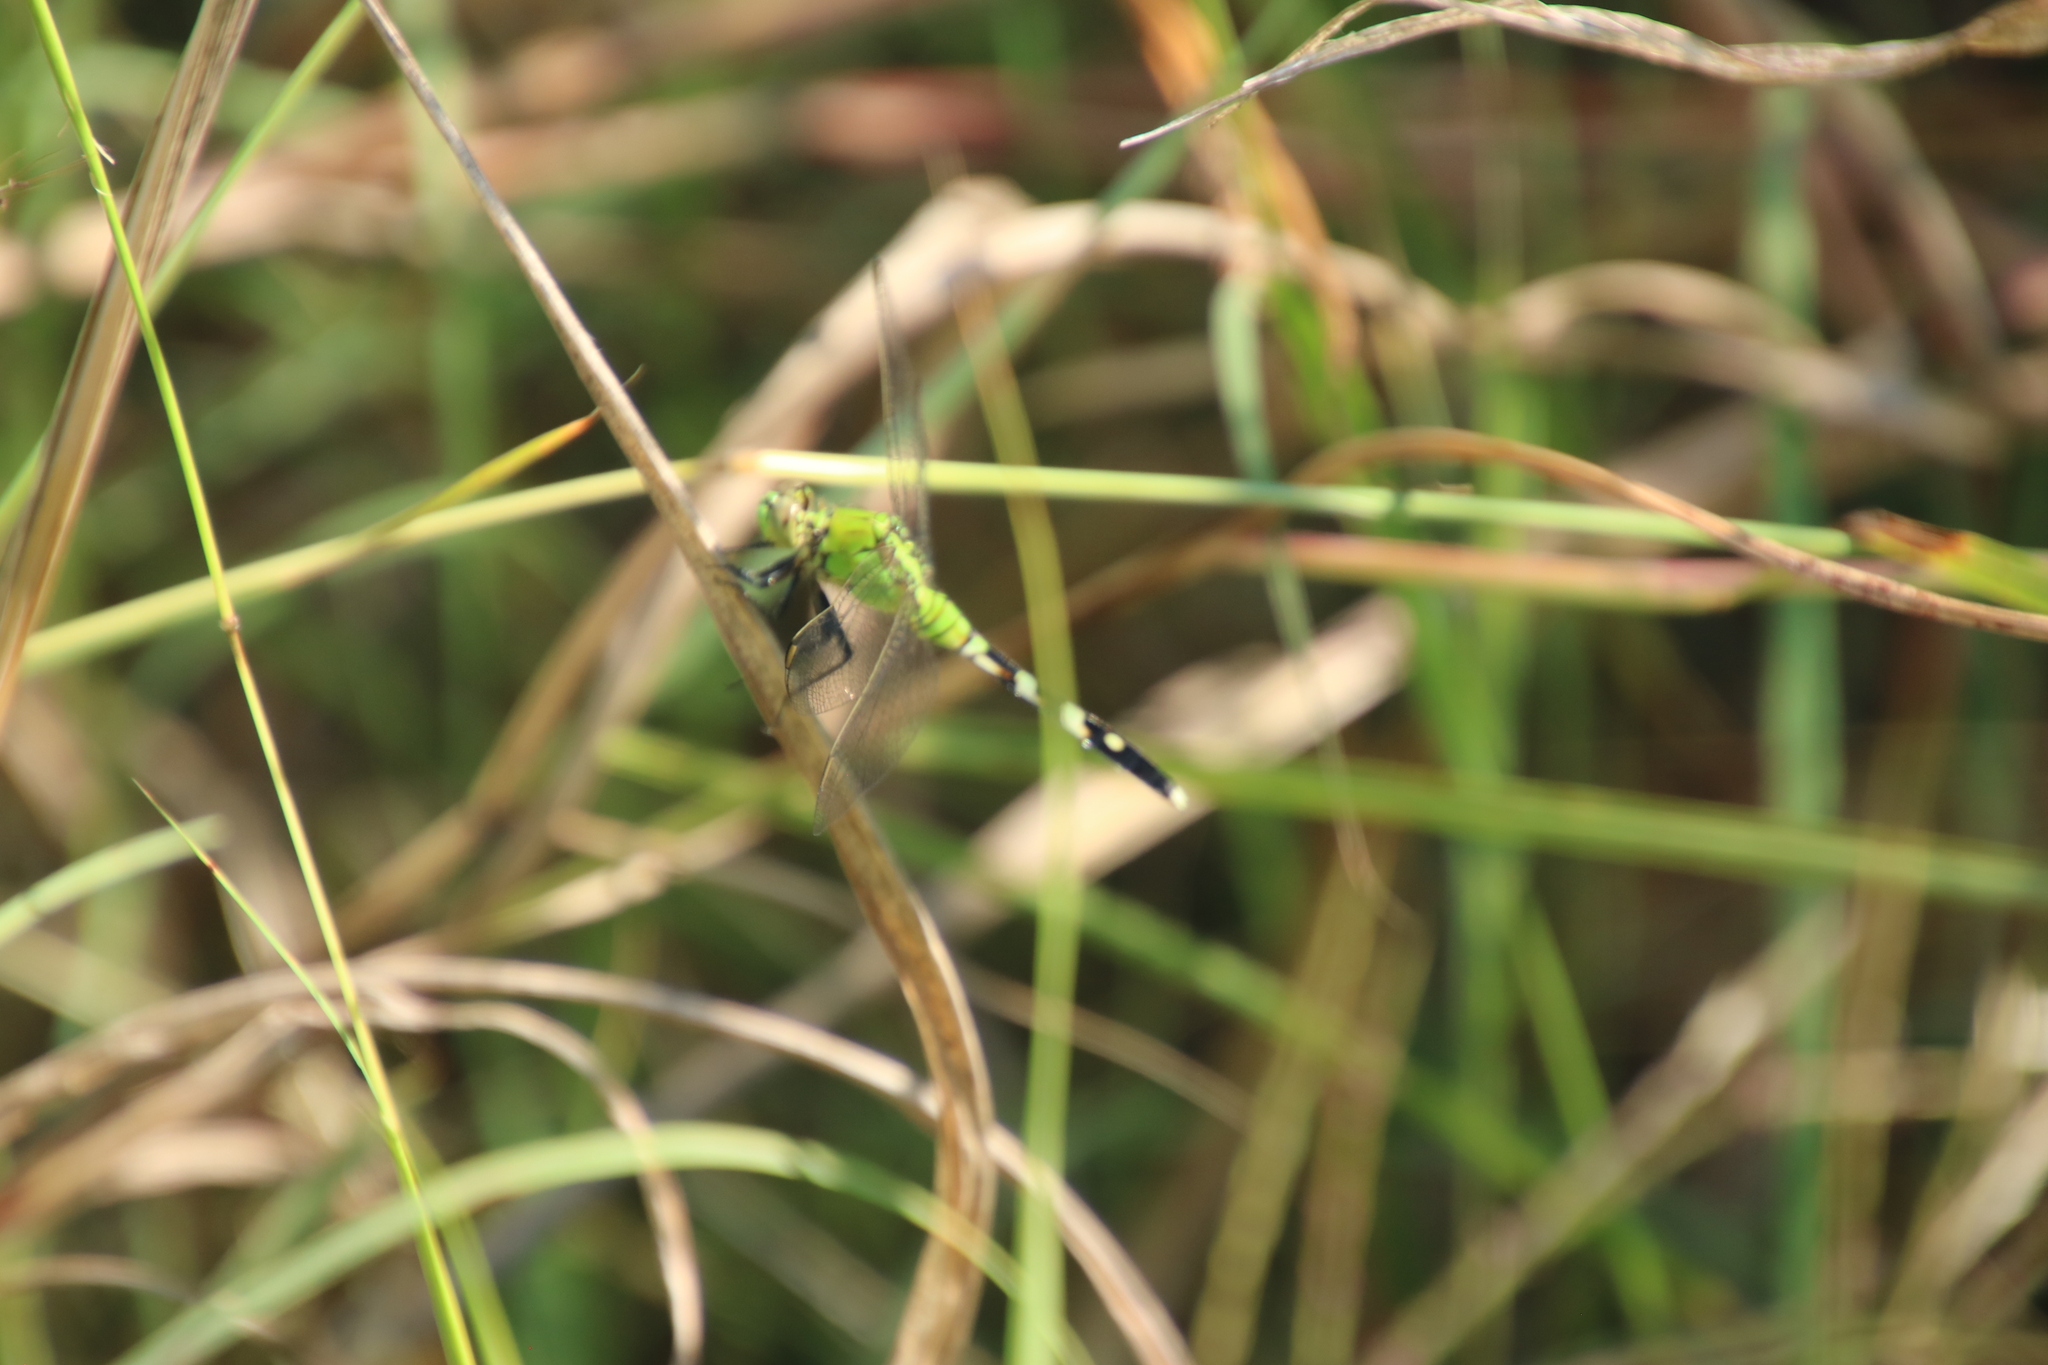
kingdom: Animalia
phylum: Arthropoda
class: Insecta
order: Odonata
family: Libellulidae
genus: Erythemis
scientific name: Erythemis simplicicollis
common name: Eastern pondhawk
